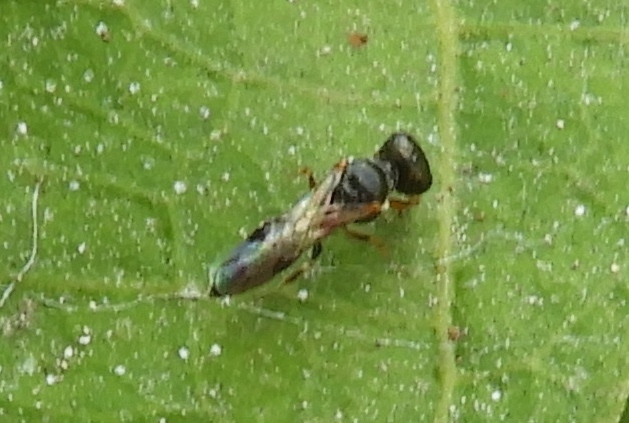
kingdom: Animalia
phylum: Arthropoda
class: Insecta
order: Hymenoptera
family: Crabronidae
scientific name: Crabronidae
